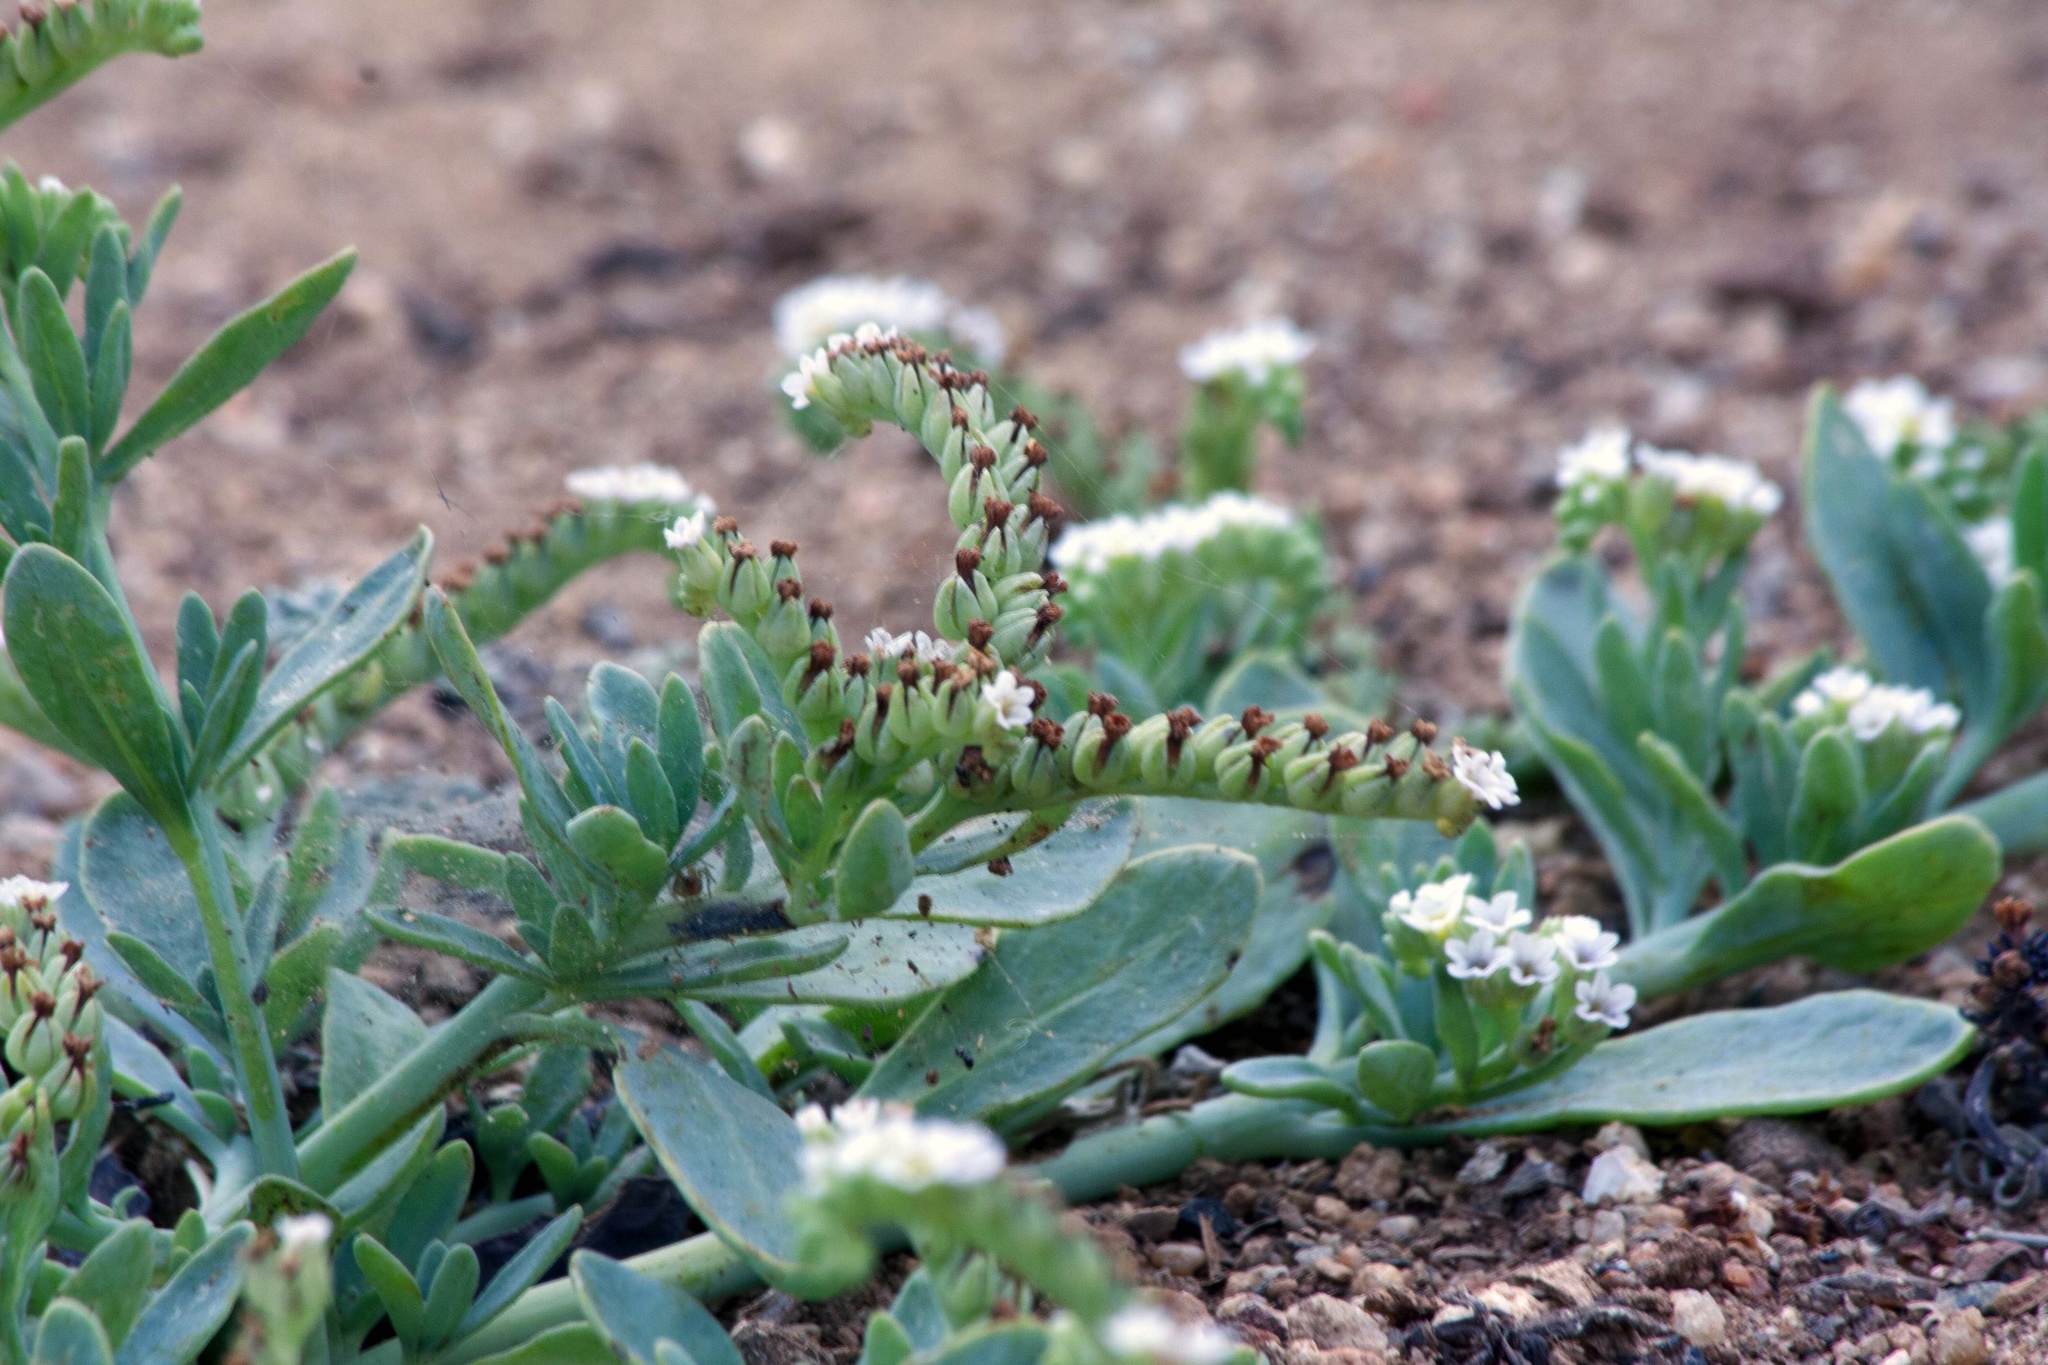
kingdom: Plantae
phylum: Tracheophyta
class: Magnoliopsida
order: Boraginales
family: Heliotropiaceae
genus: Heliotropium
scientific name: Heliotropium curassavicum
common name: Seaside heliotrope
